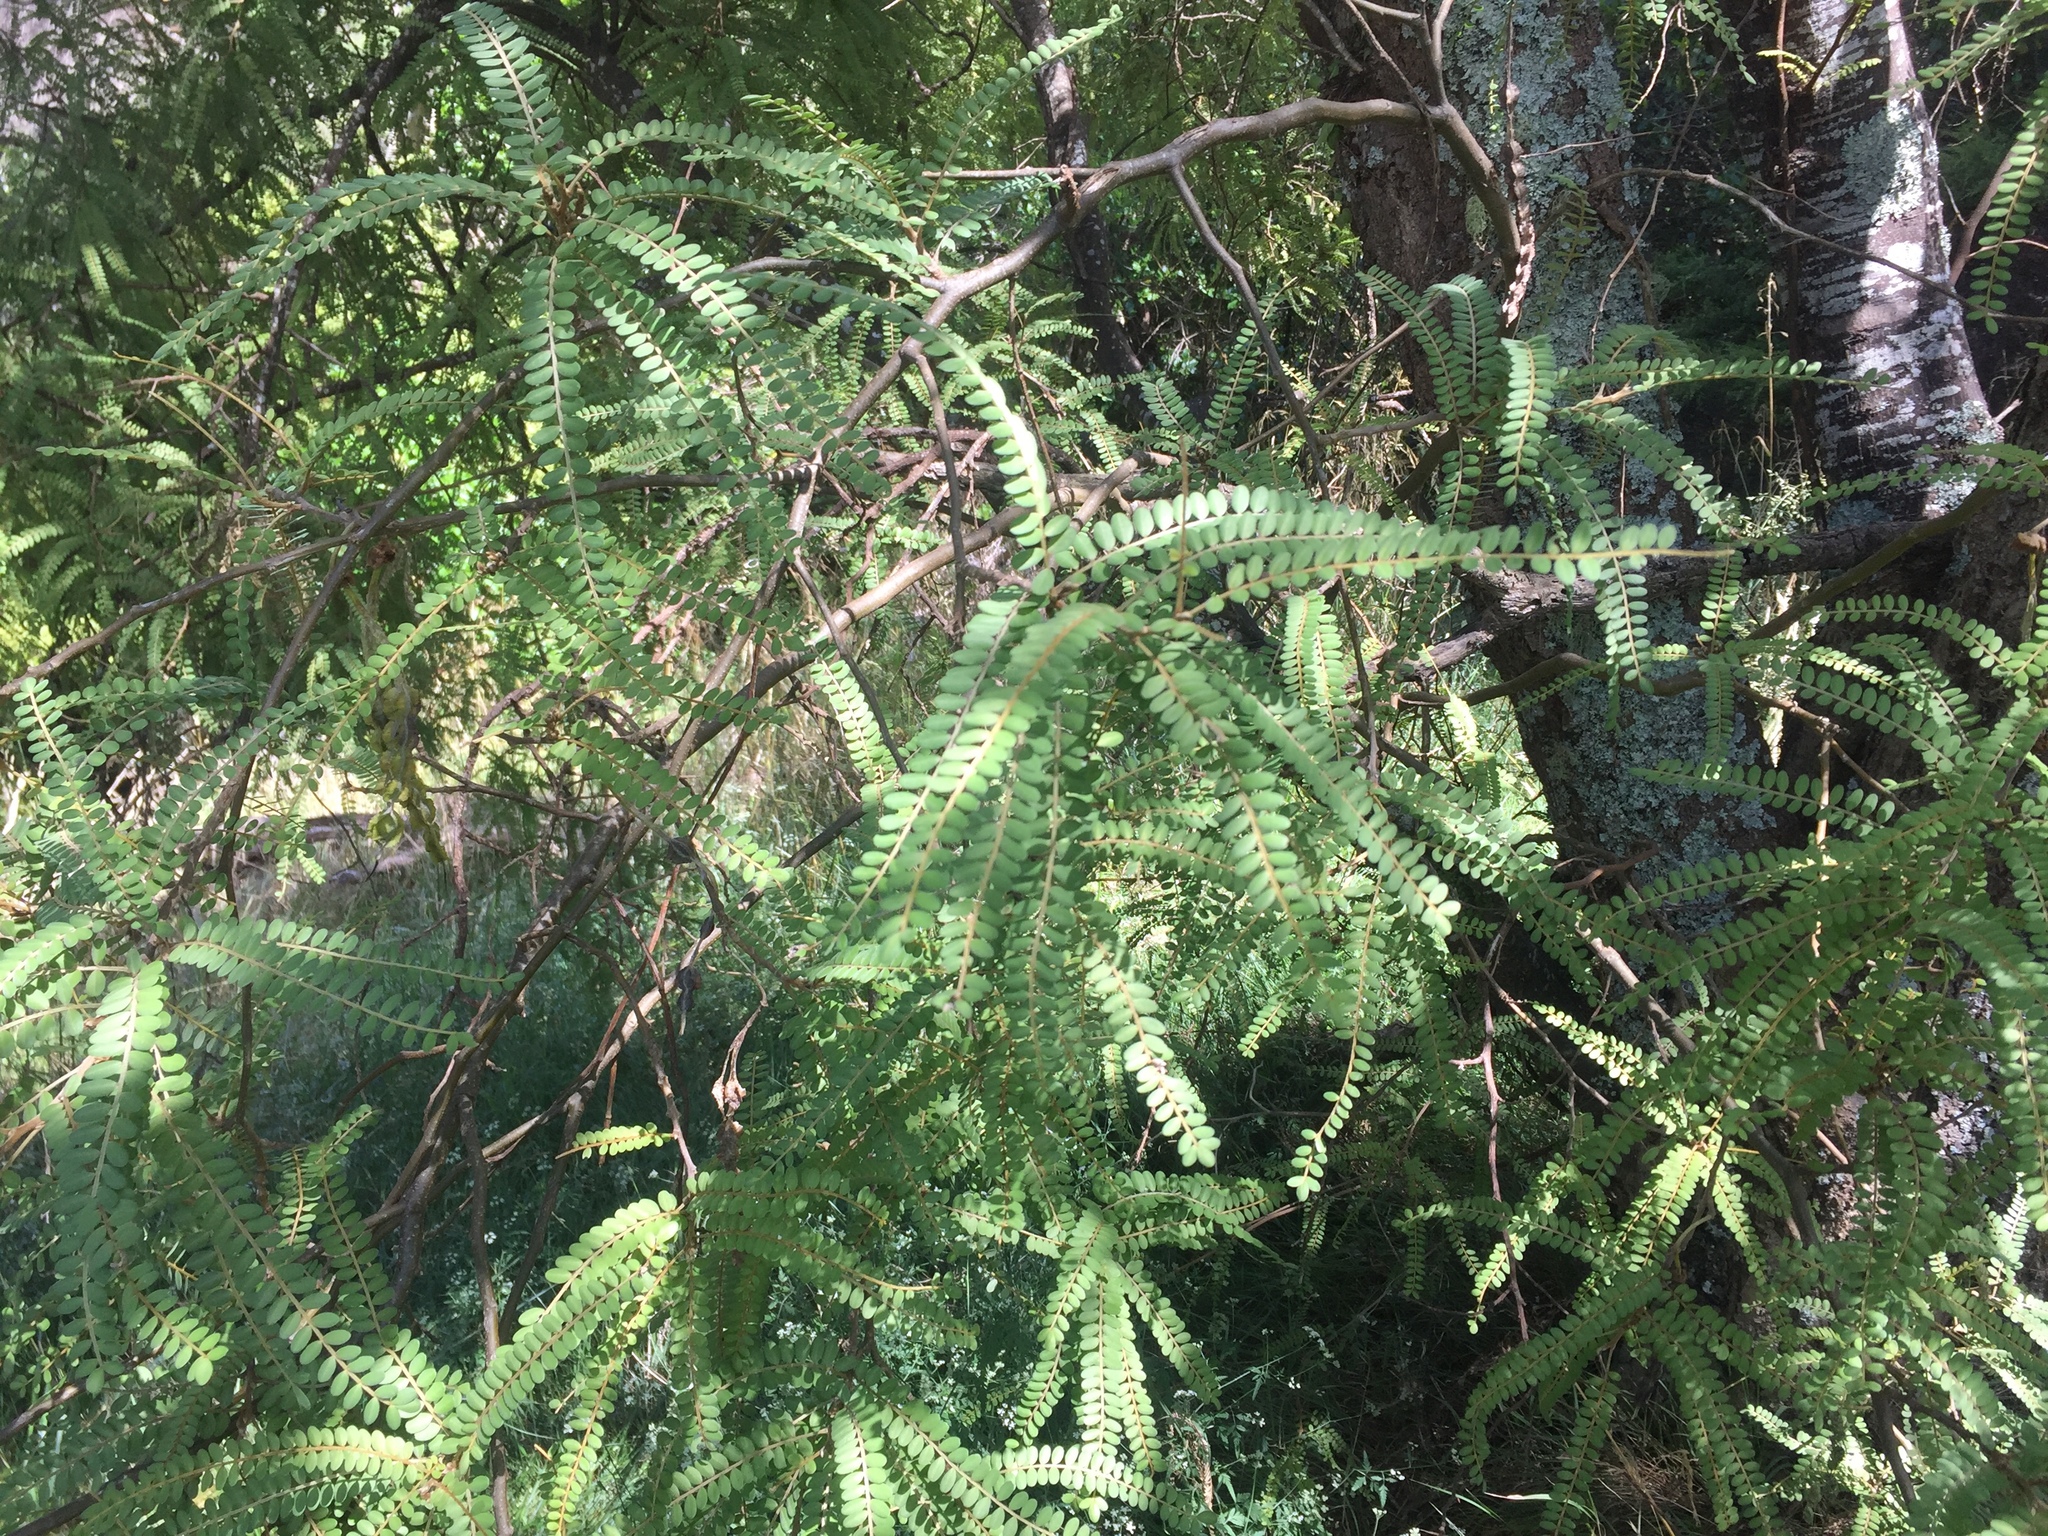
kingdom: Plantae
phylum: Tracheophyta
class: Magnoliopsida
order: Fabales
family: Fabaceae
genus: Sophora
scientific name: Sophora chathamica
